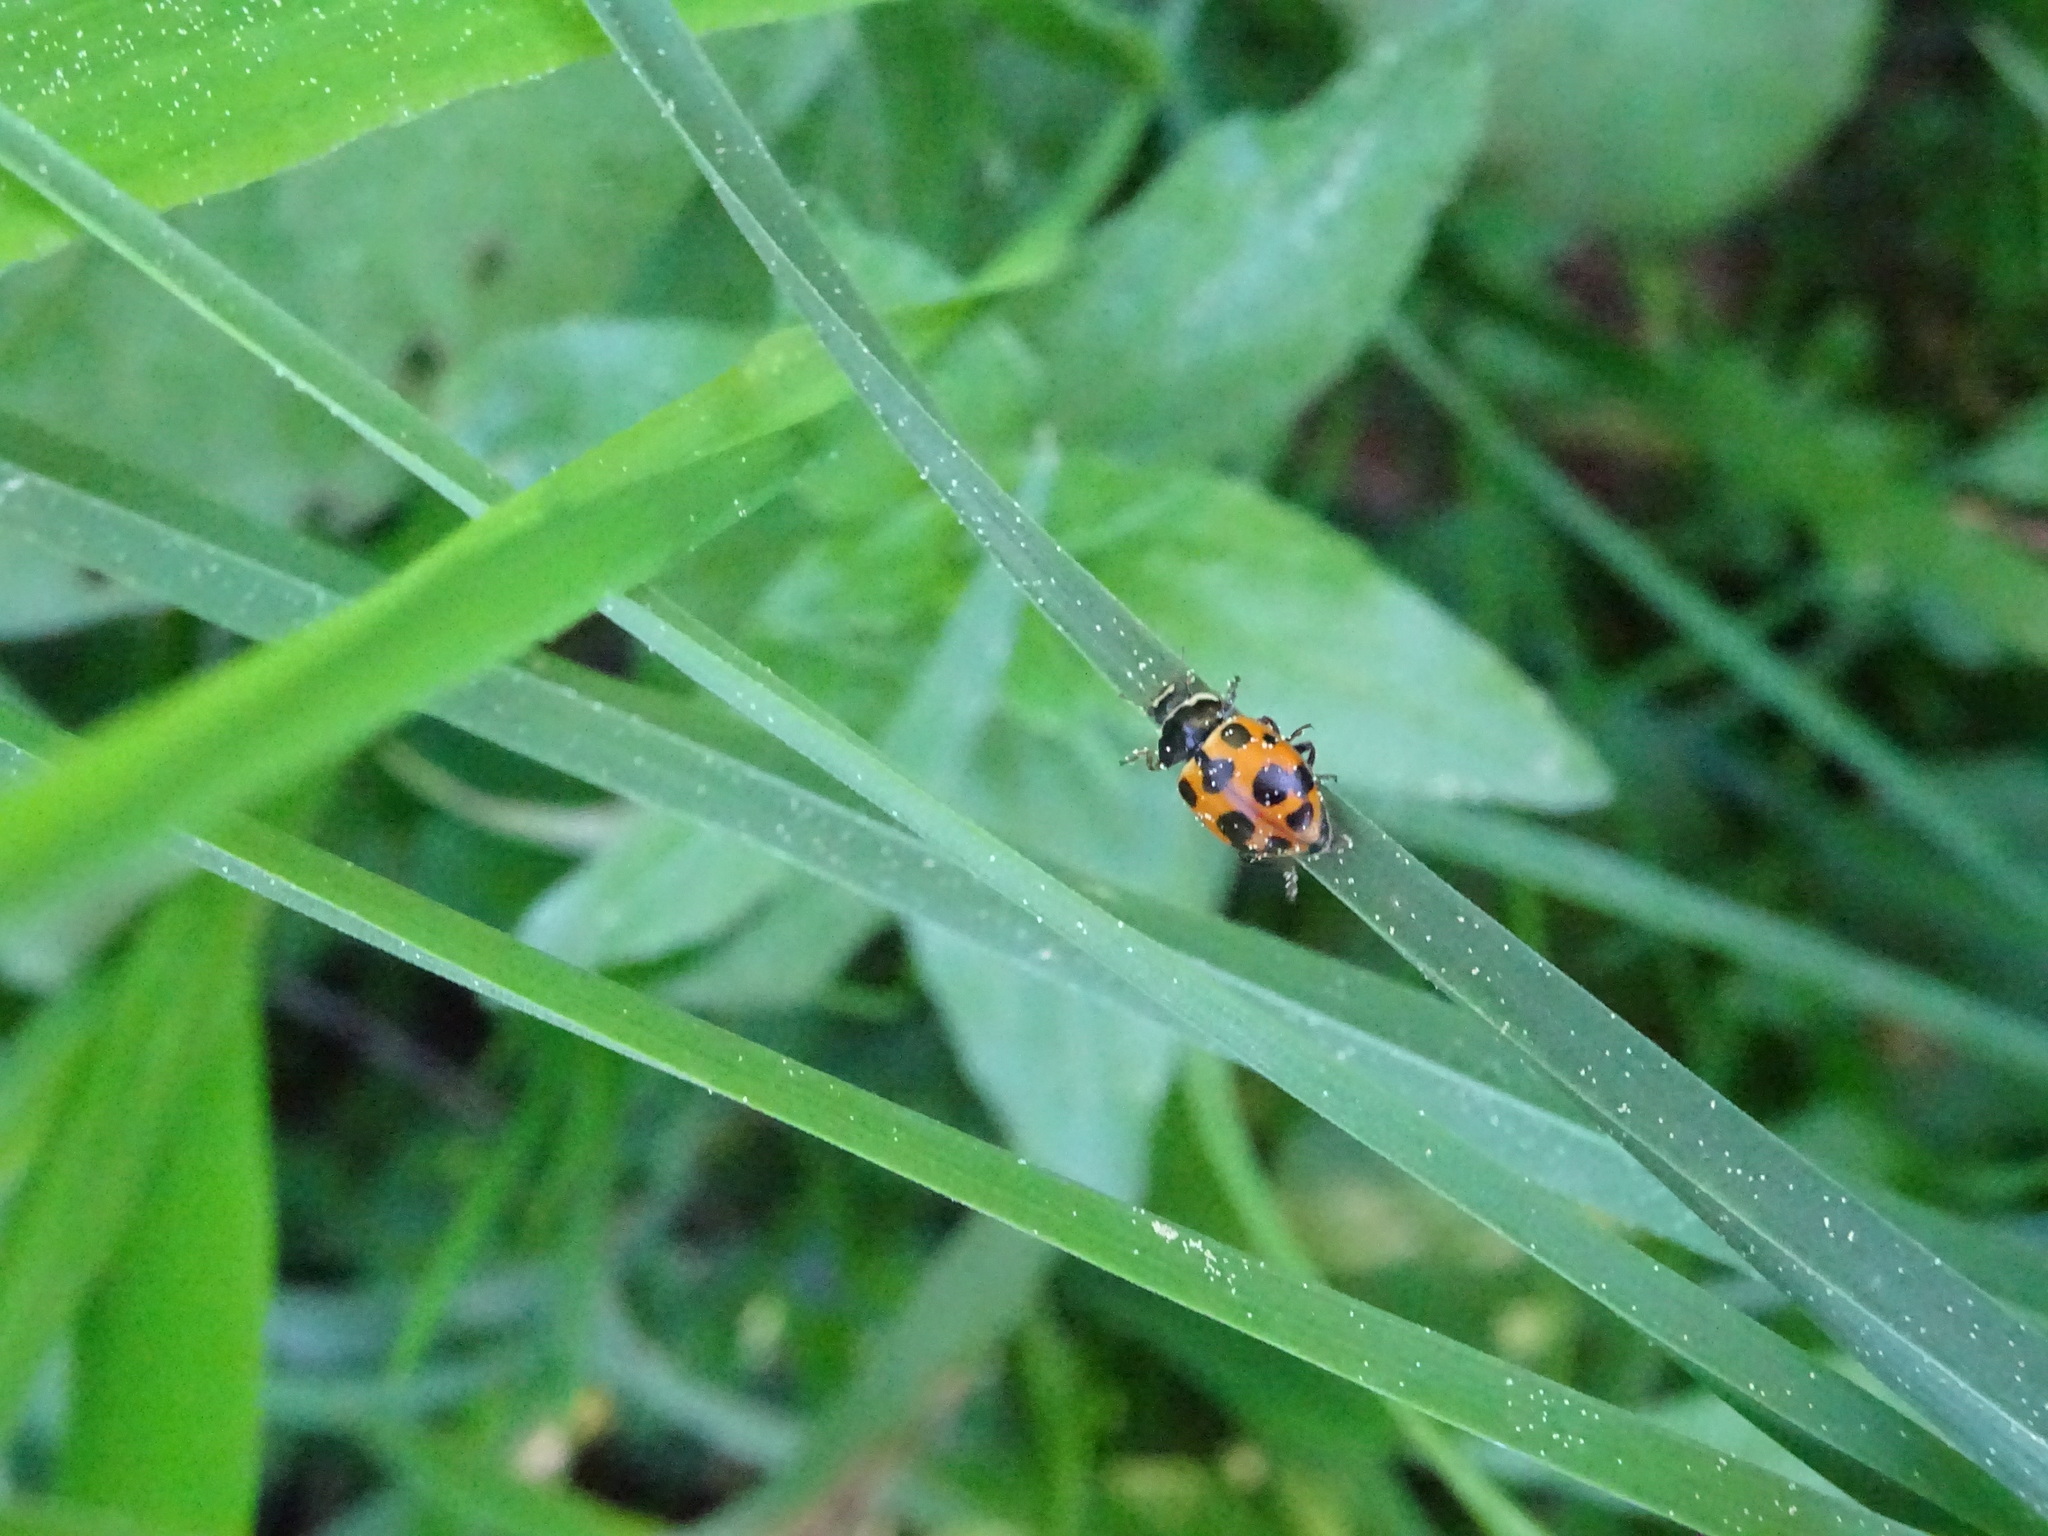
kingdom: Animalia
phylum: Arthropoda
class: Insecta
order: Coleoptera
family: Coccinellidae
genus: Ceratomegilla
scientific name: Ceratomegilla notata
